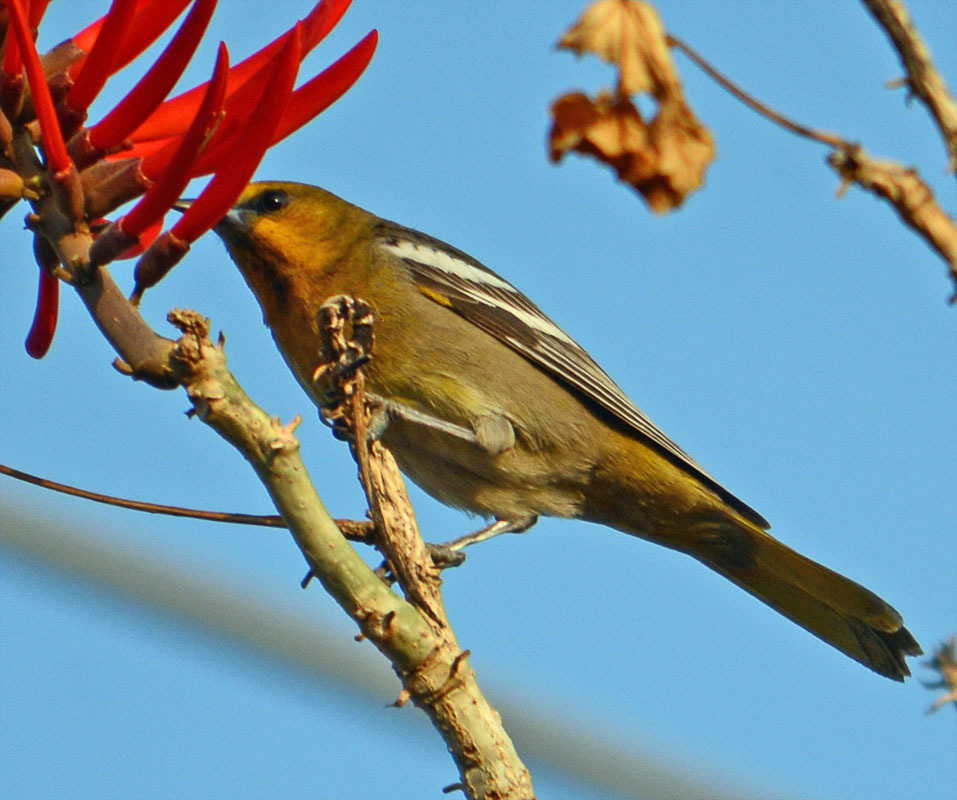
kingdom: Animalia
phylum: Chordata
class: Aves
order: Passeriformes
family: Icteridae
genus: Icterus
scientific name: Icterus abeillei
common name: Black-backed oriole
